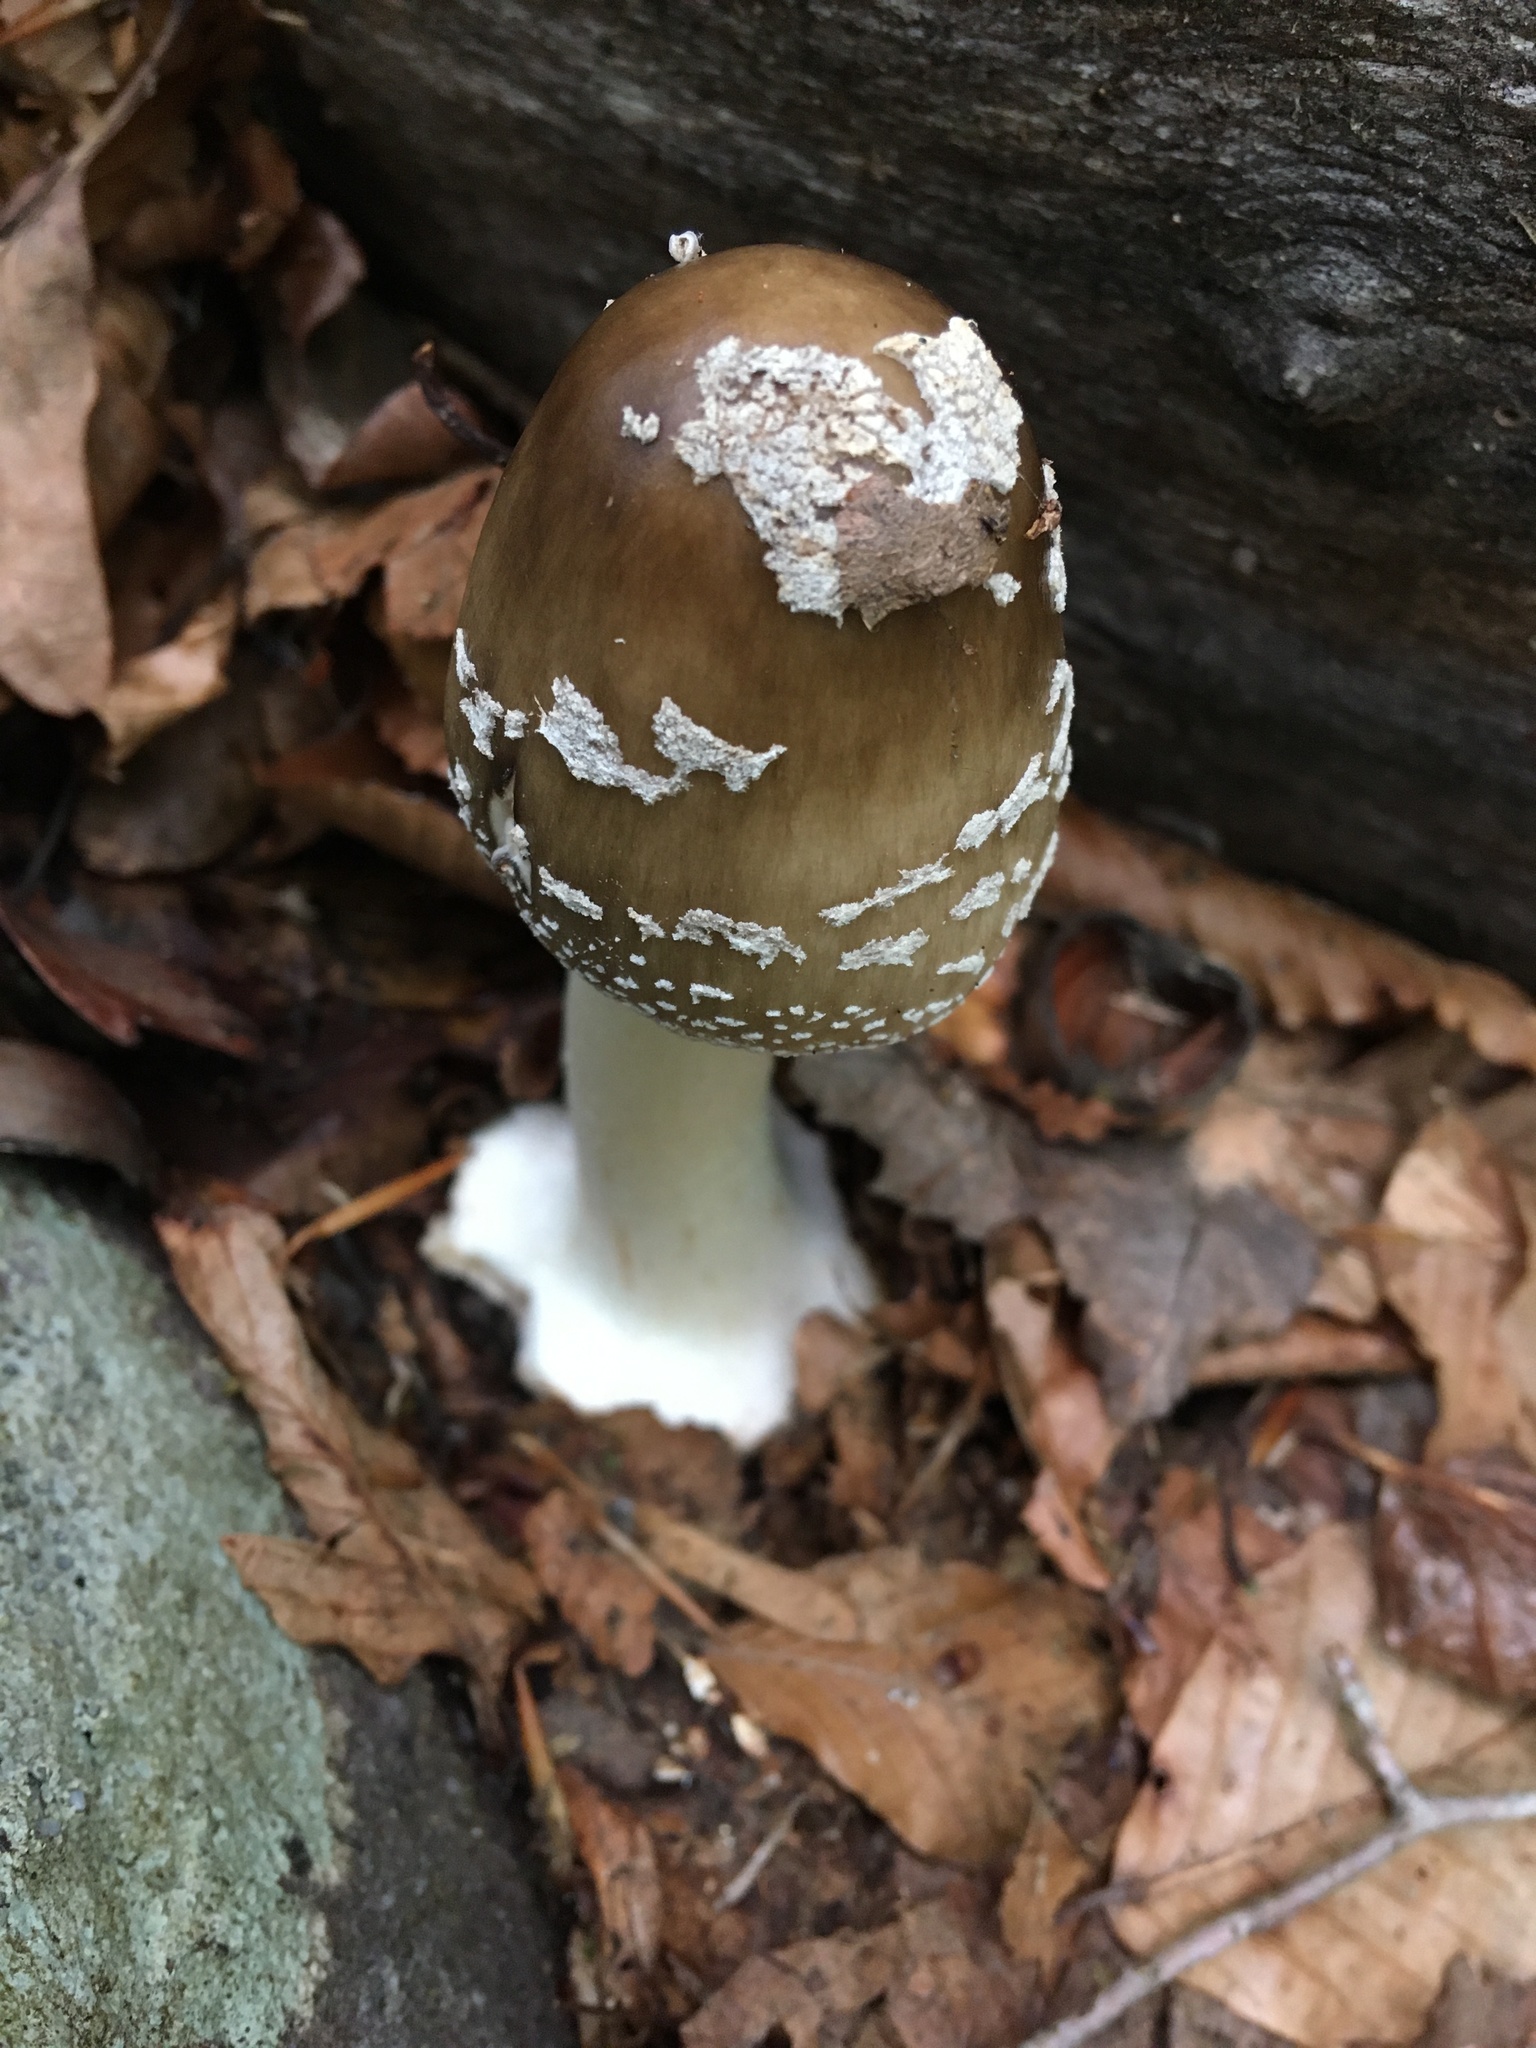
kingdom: Fungi
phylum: Basidiomycota
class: Agaricomycetes
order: Agaricales
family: Amanitaceae
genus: Amanita
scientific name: Amanita brunnescens
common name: Brown american star-footed amanita
